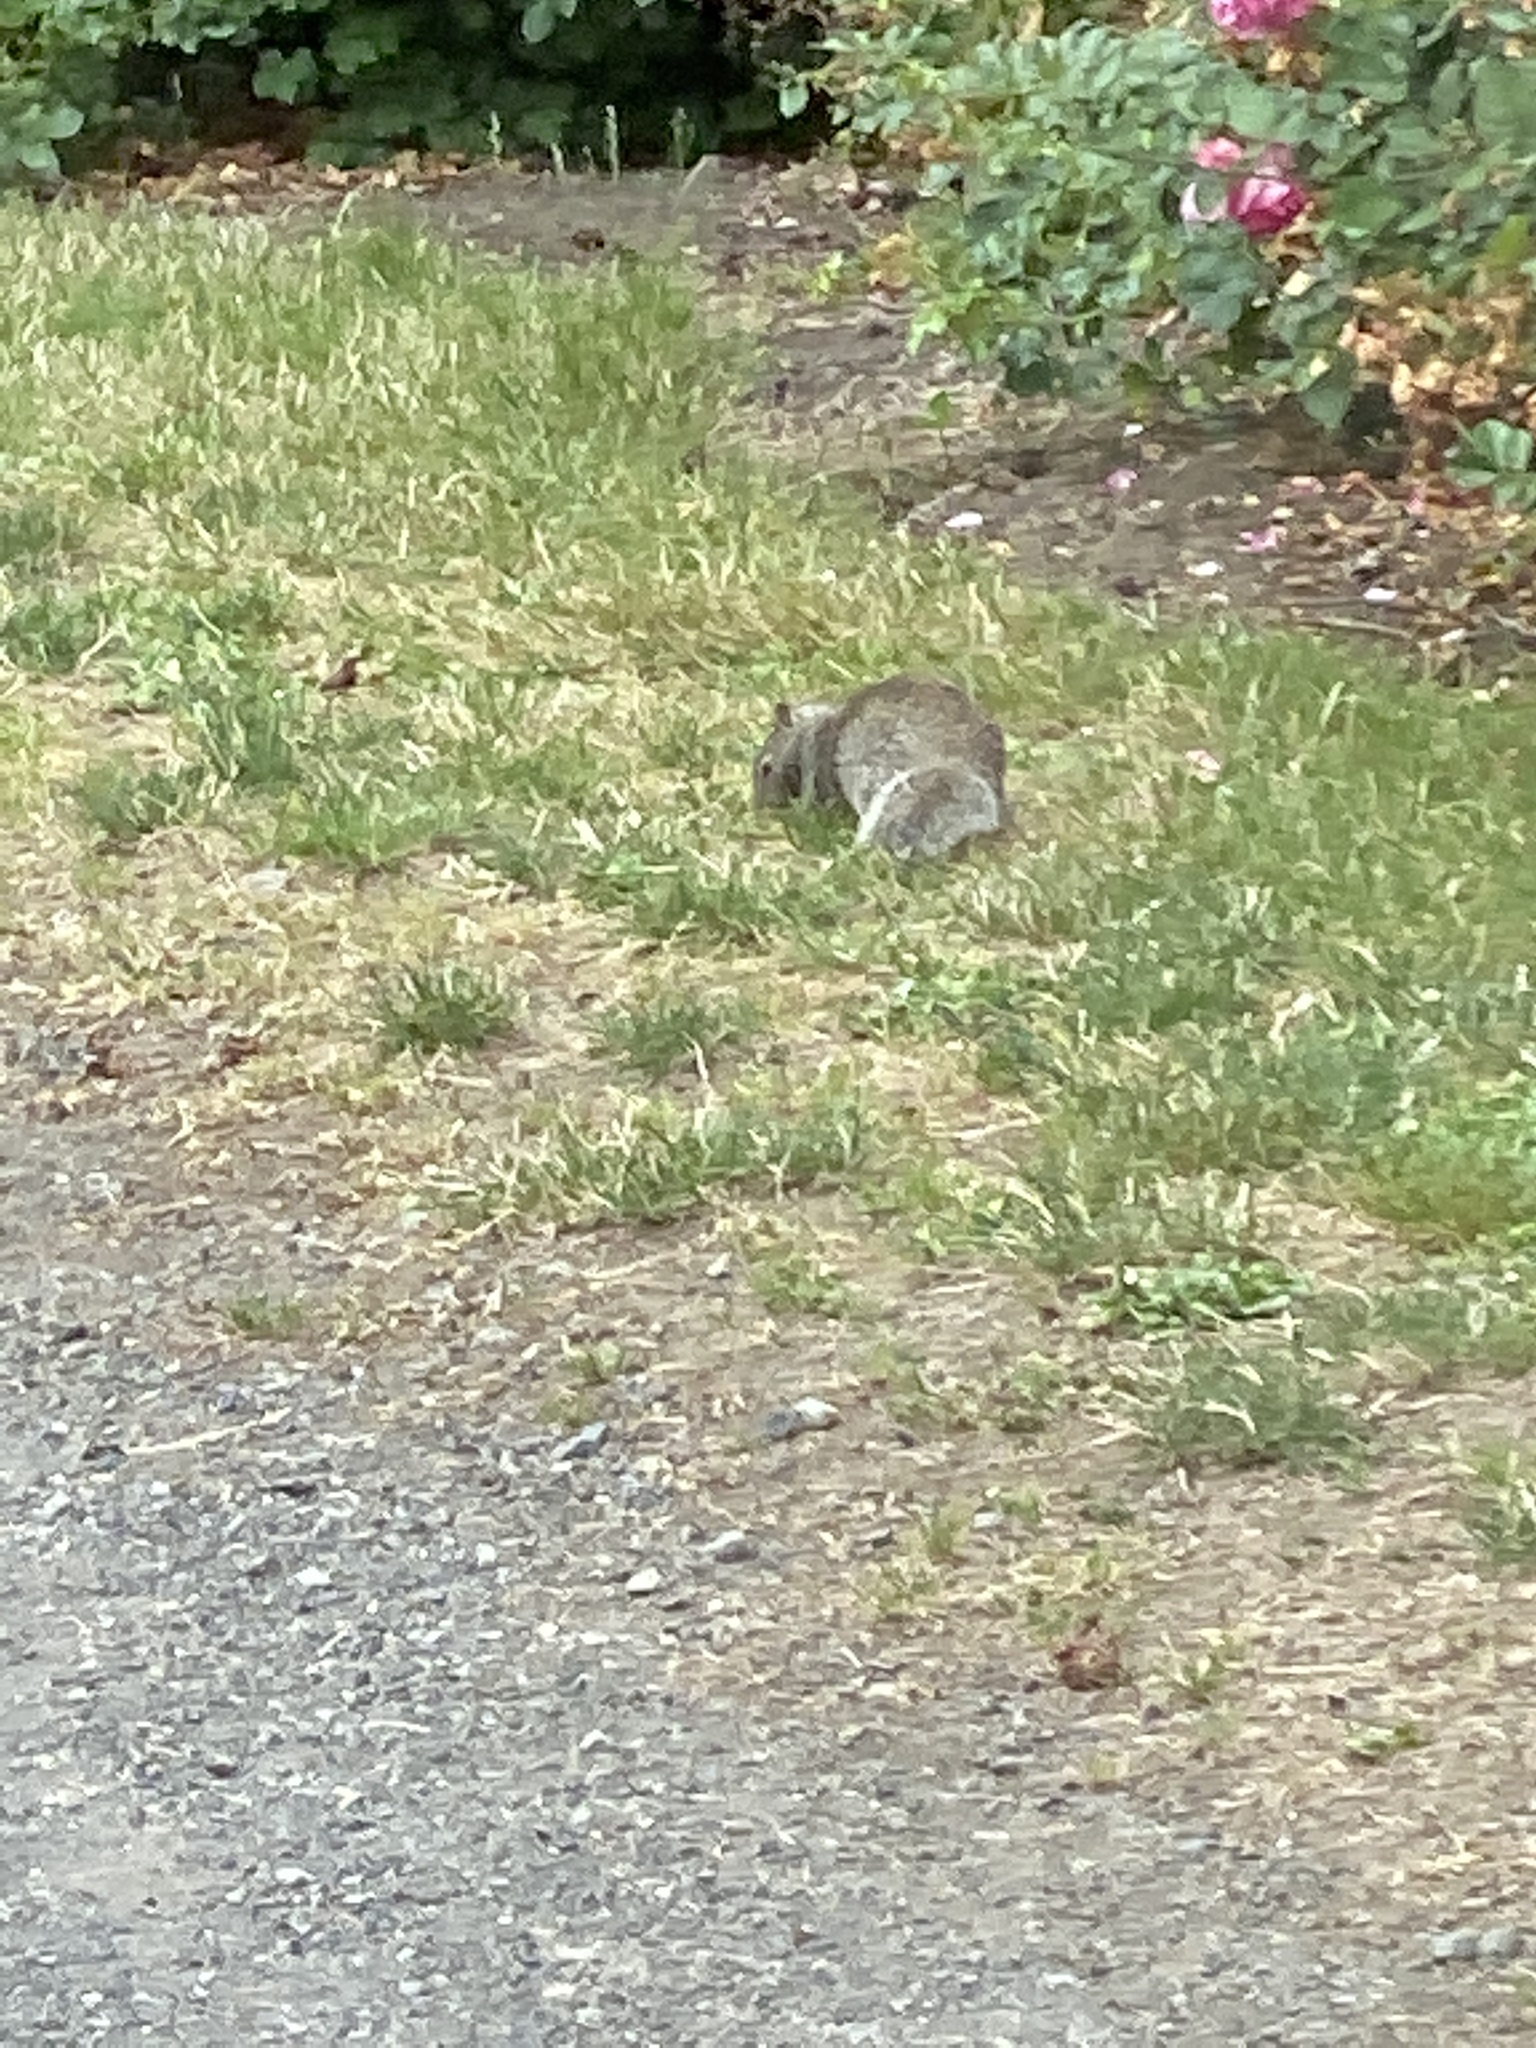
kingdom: Animalia
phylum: Chordata
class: Mammalia
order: Rodentia
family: Sciuridae
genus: Otospermophilus
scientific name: Otospermophilus beecheyi
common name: California ground squirrel
